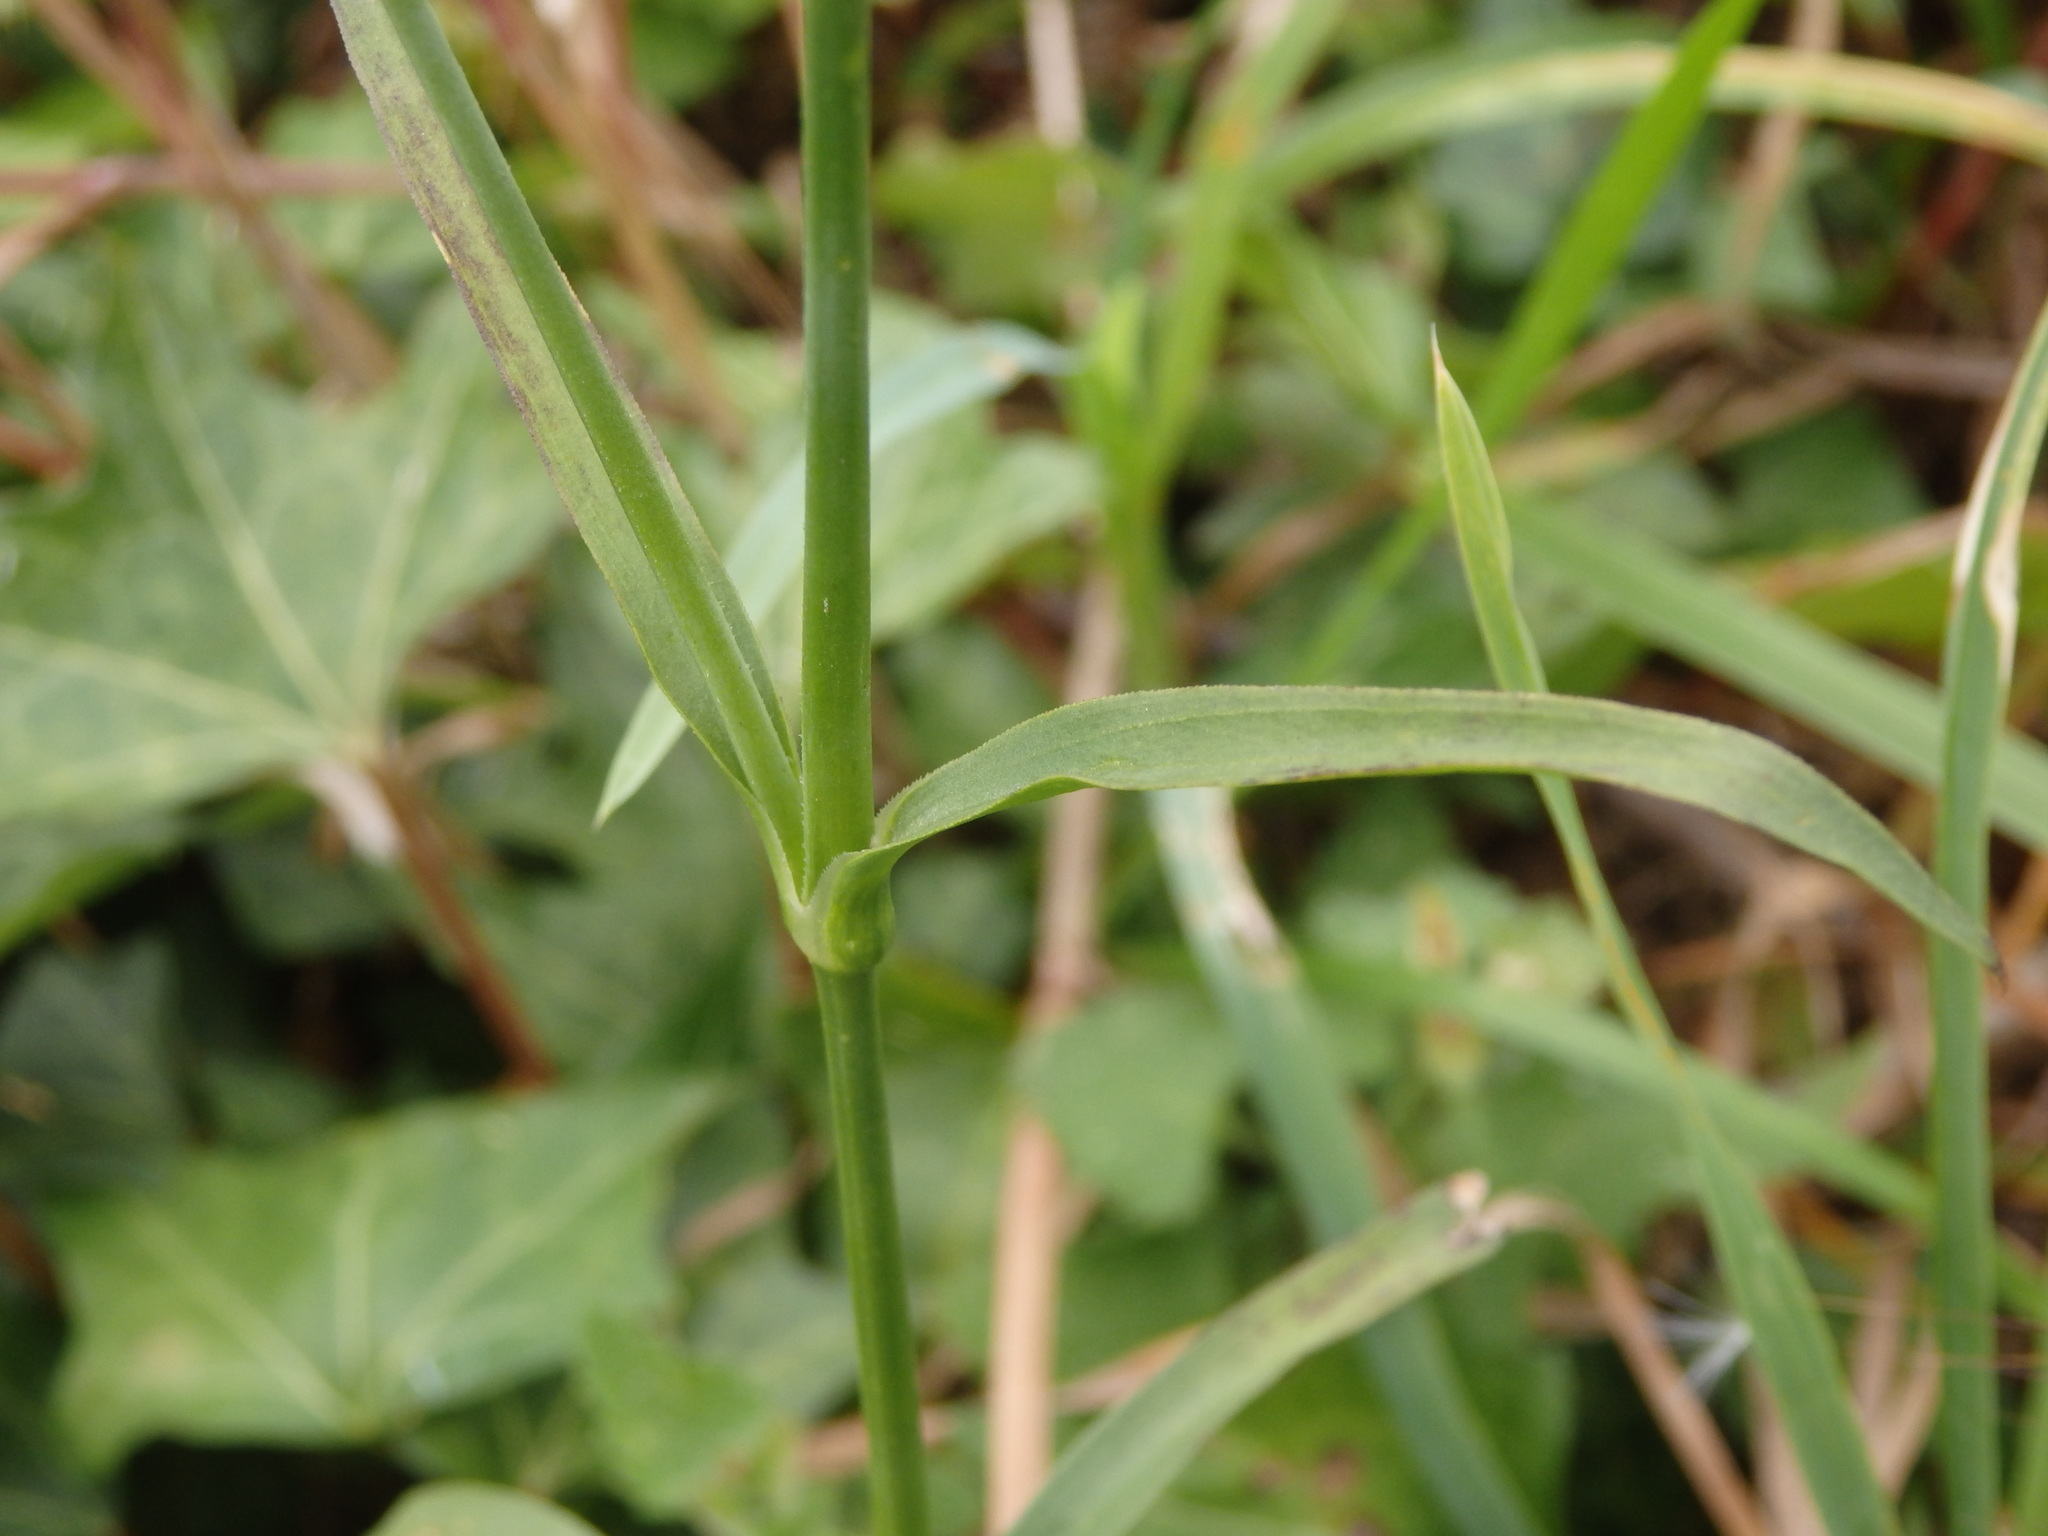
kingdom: Plantae
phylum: Tracheophyta
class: Magnoliopsida
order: Caryophyllales
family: Caryophyllaceae
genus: Dianthus
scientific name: Dianthus laricifolius
